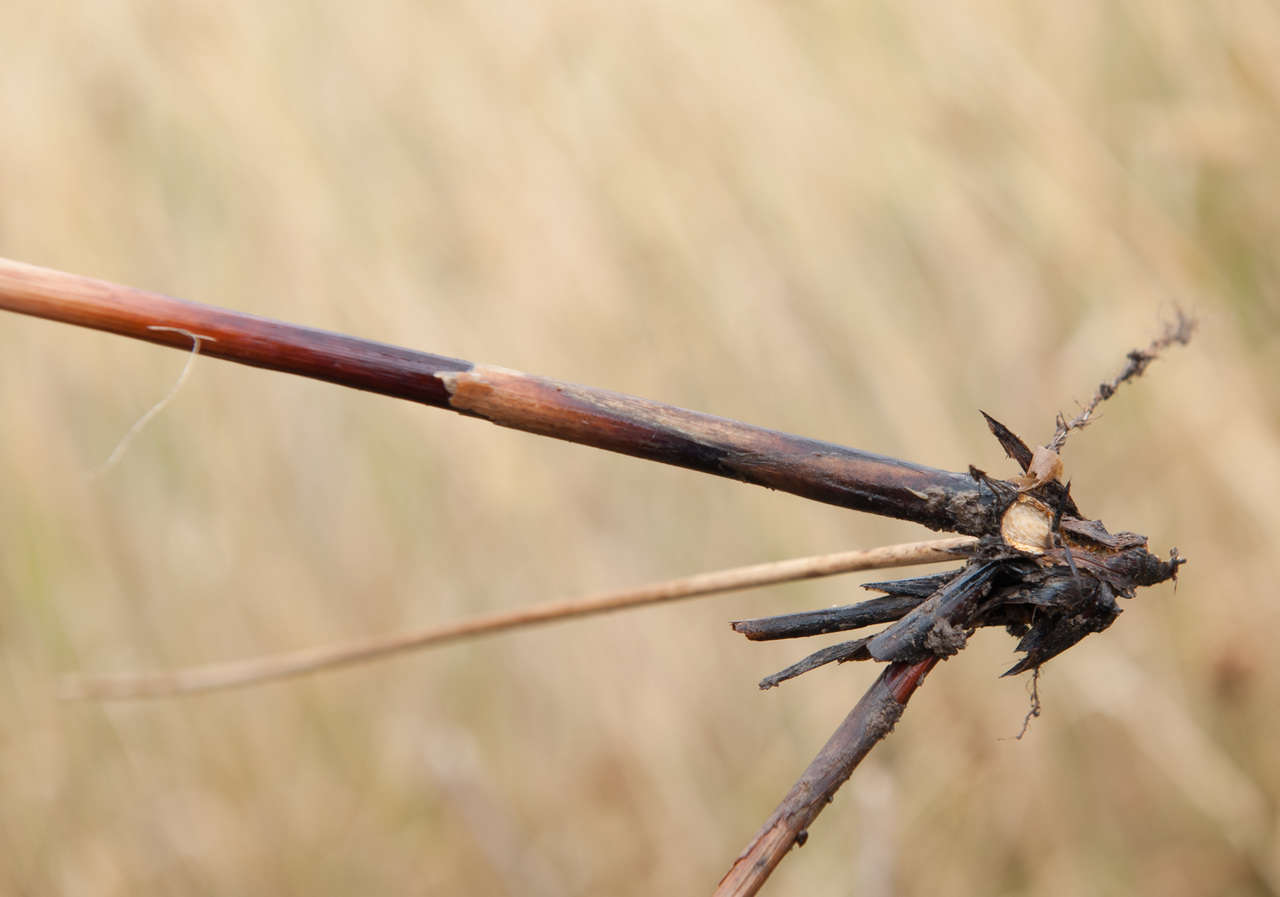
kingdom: Plantae
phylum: Tracheophyta
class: Liliopsida
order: Poales
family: Juncaceae
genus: Juncus
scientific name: Juncus semisolidus
